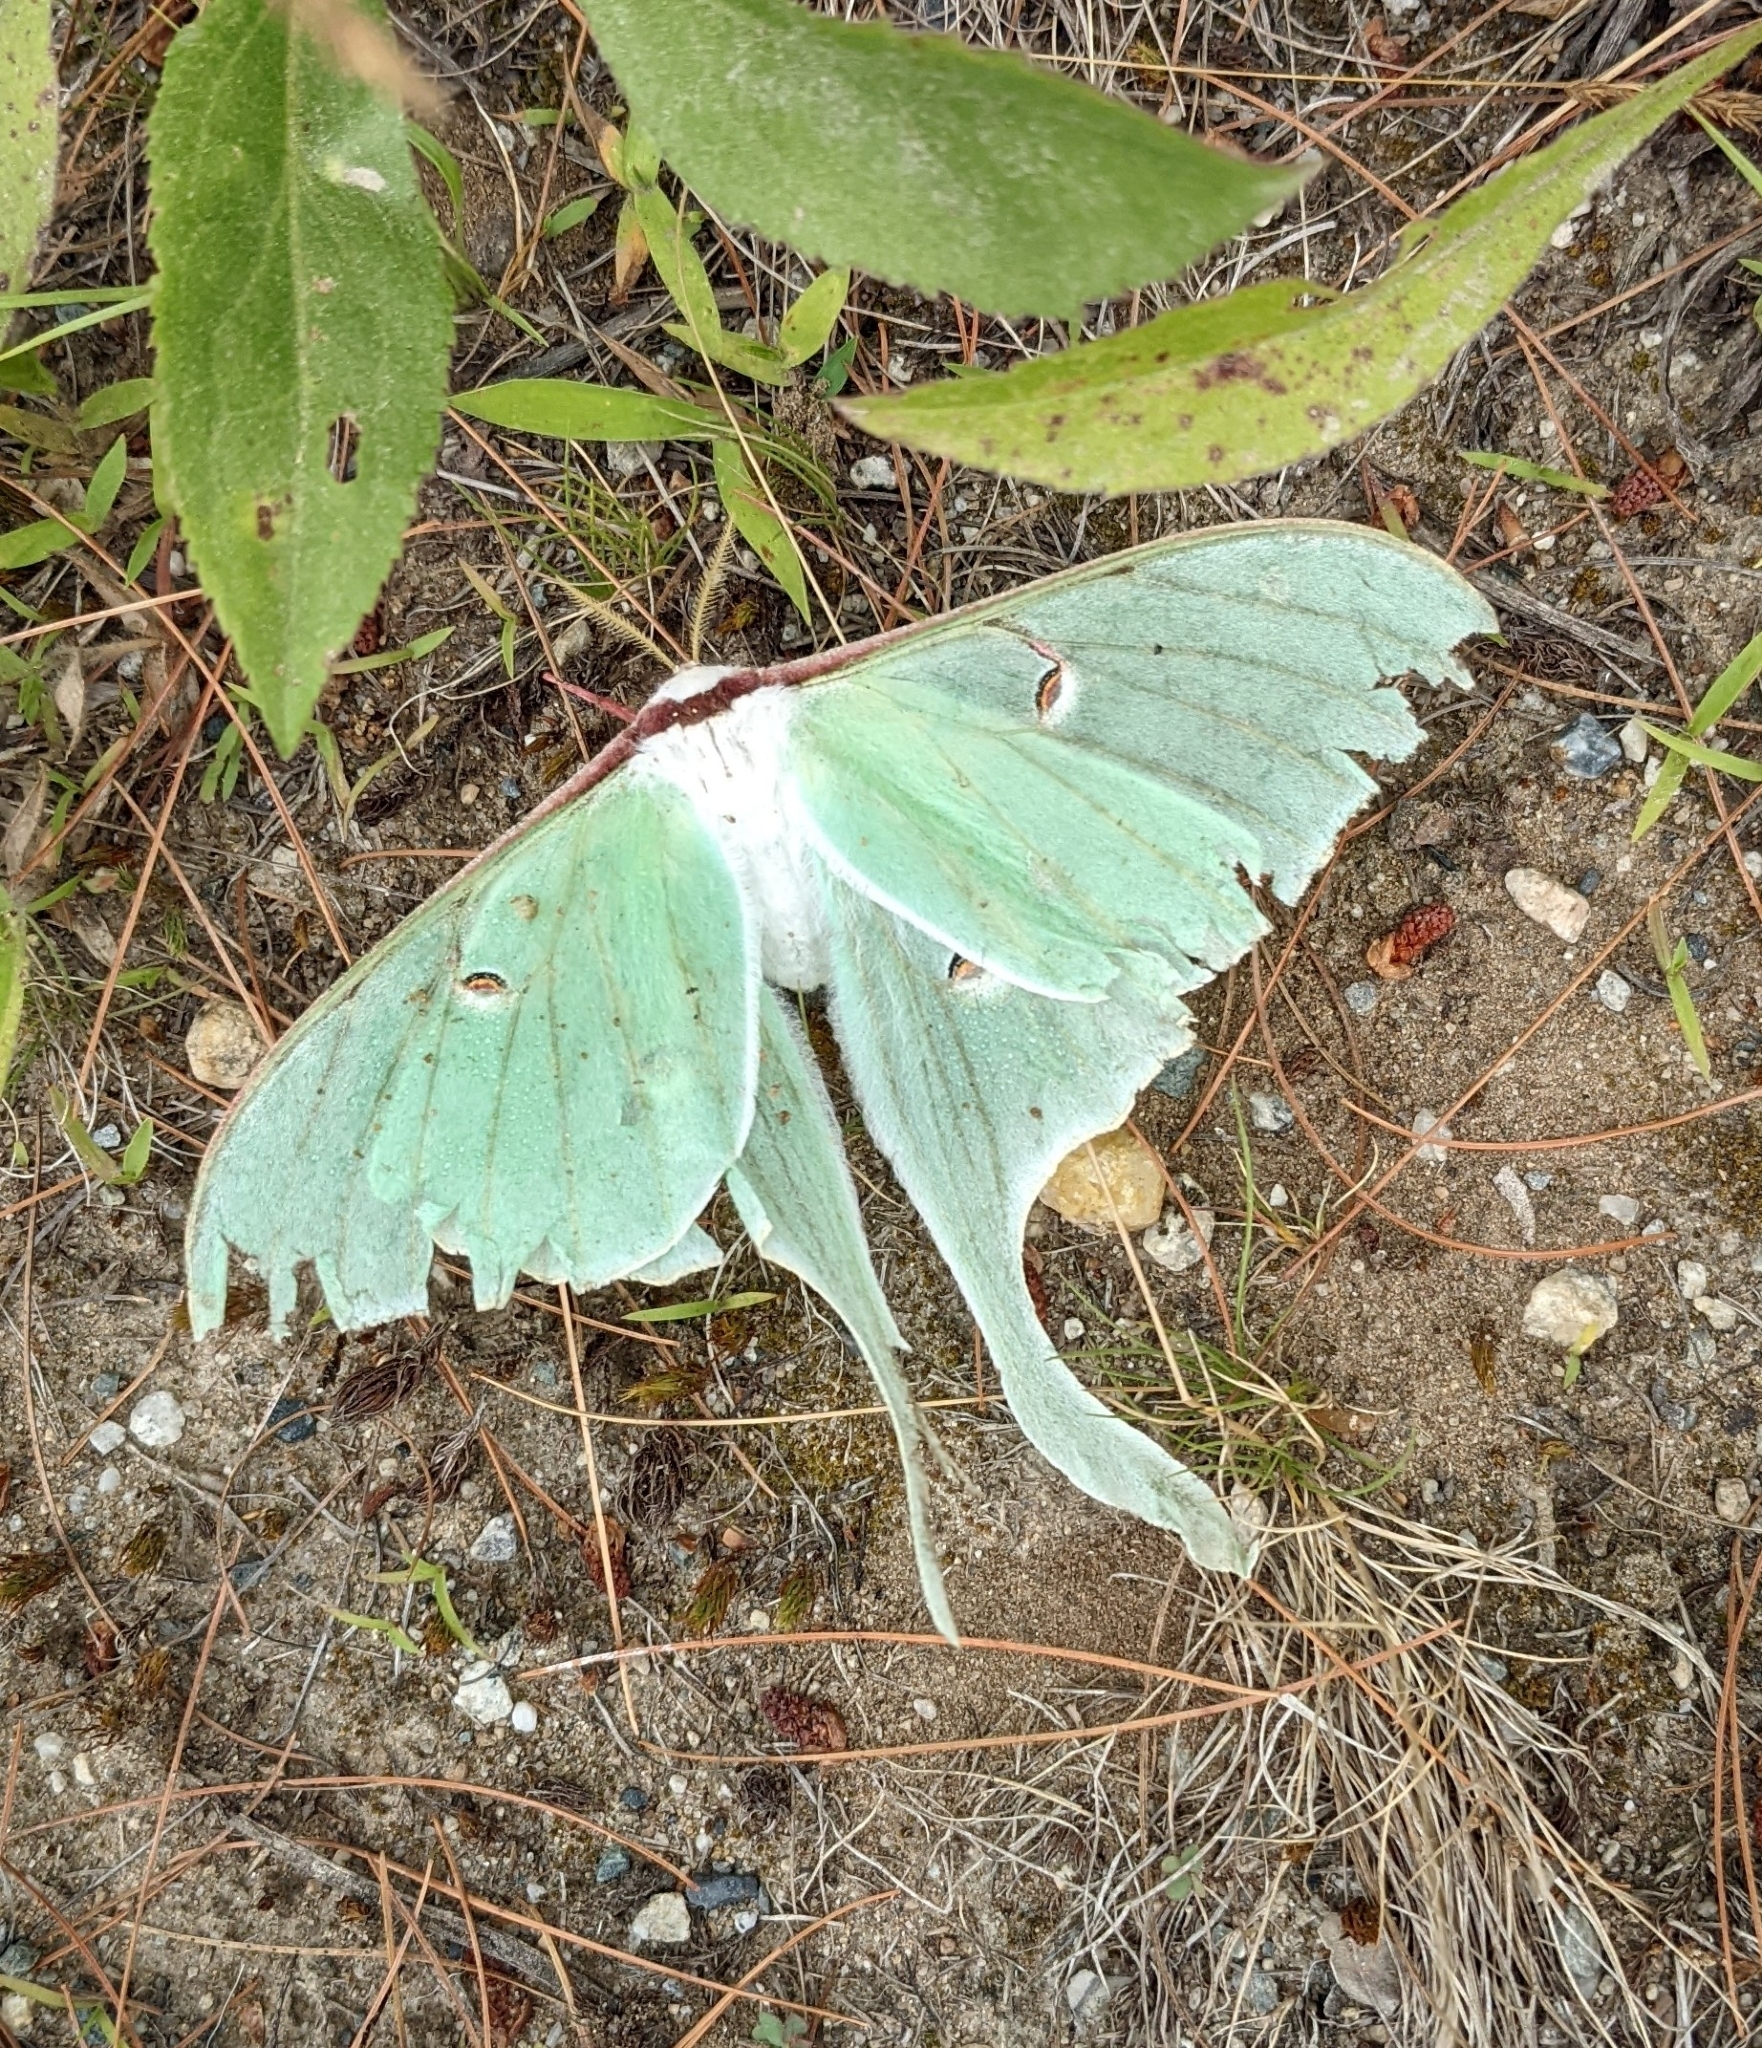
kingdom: Animalia
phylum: Arthropoda
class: Insecta
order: Lepidoptera
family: Saturniidae
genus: Actias
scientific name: Actias luna
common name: Luna moth
